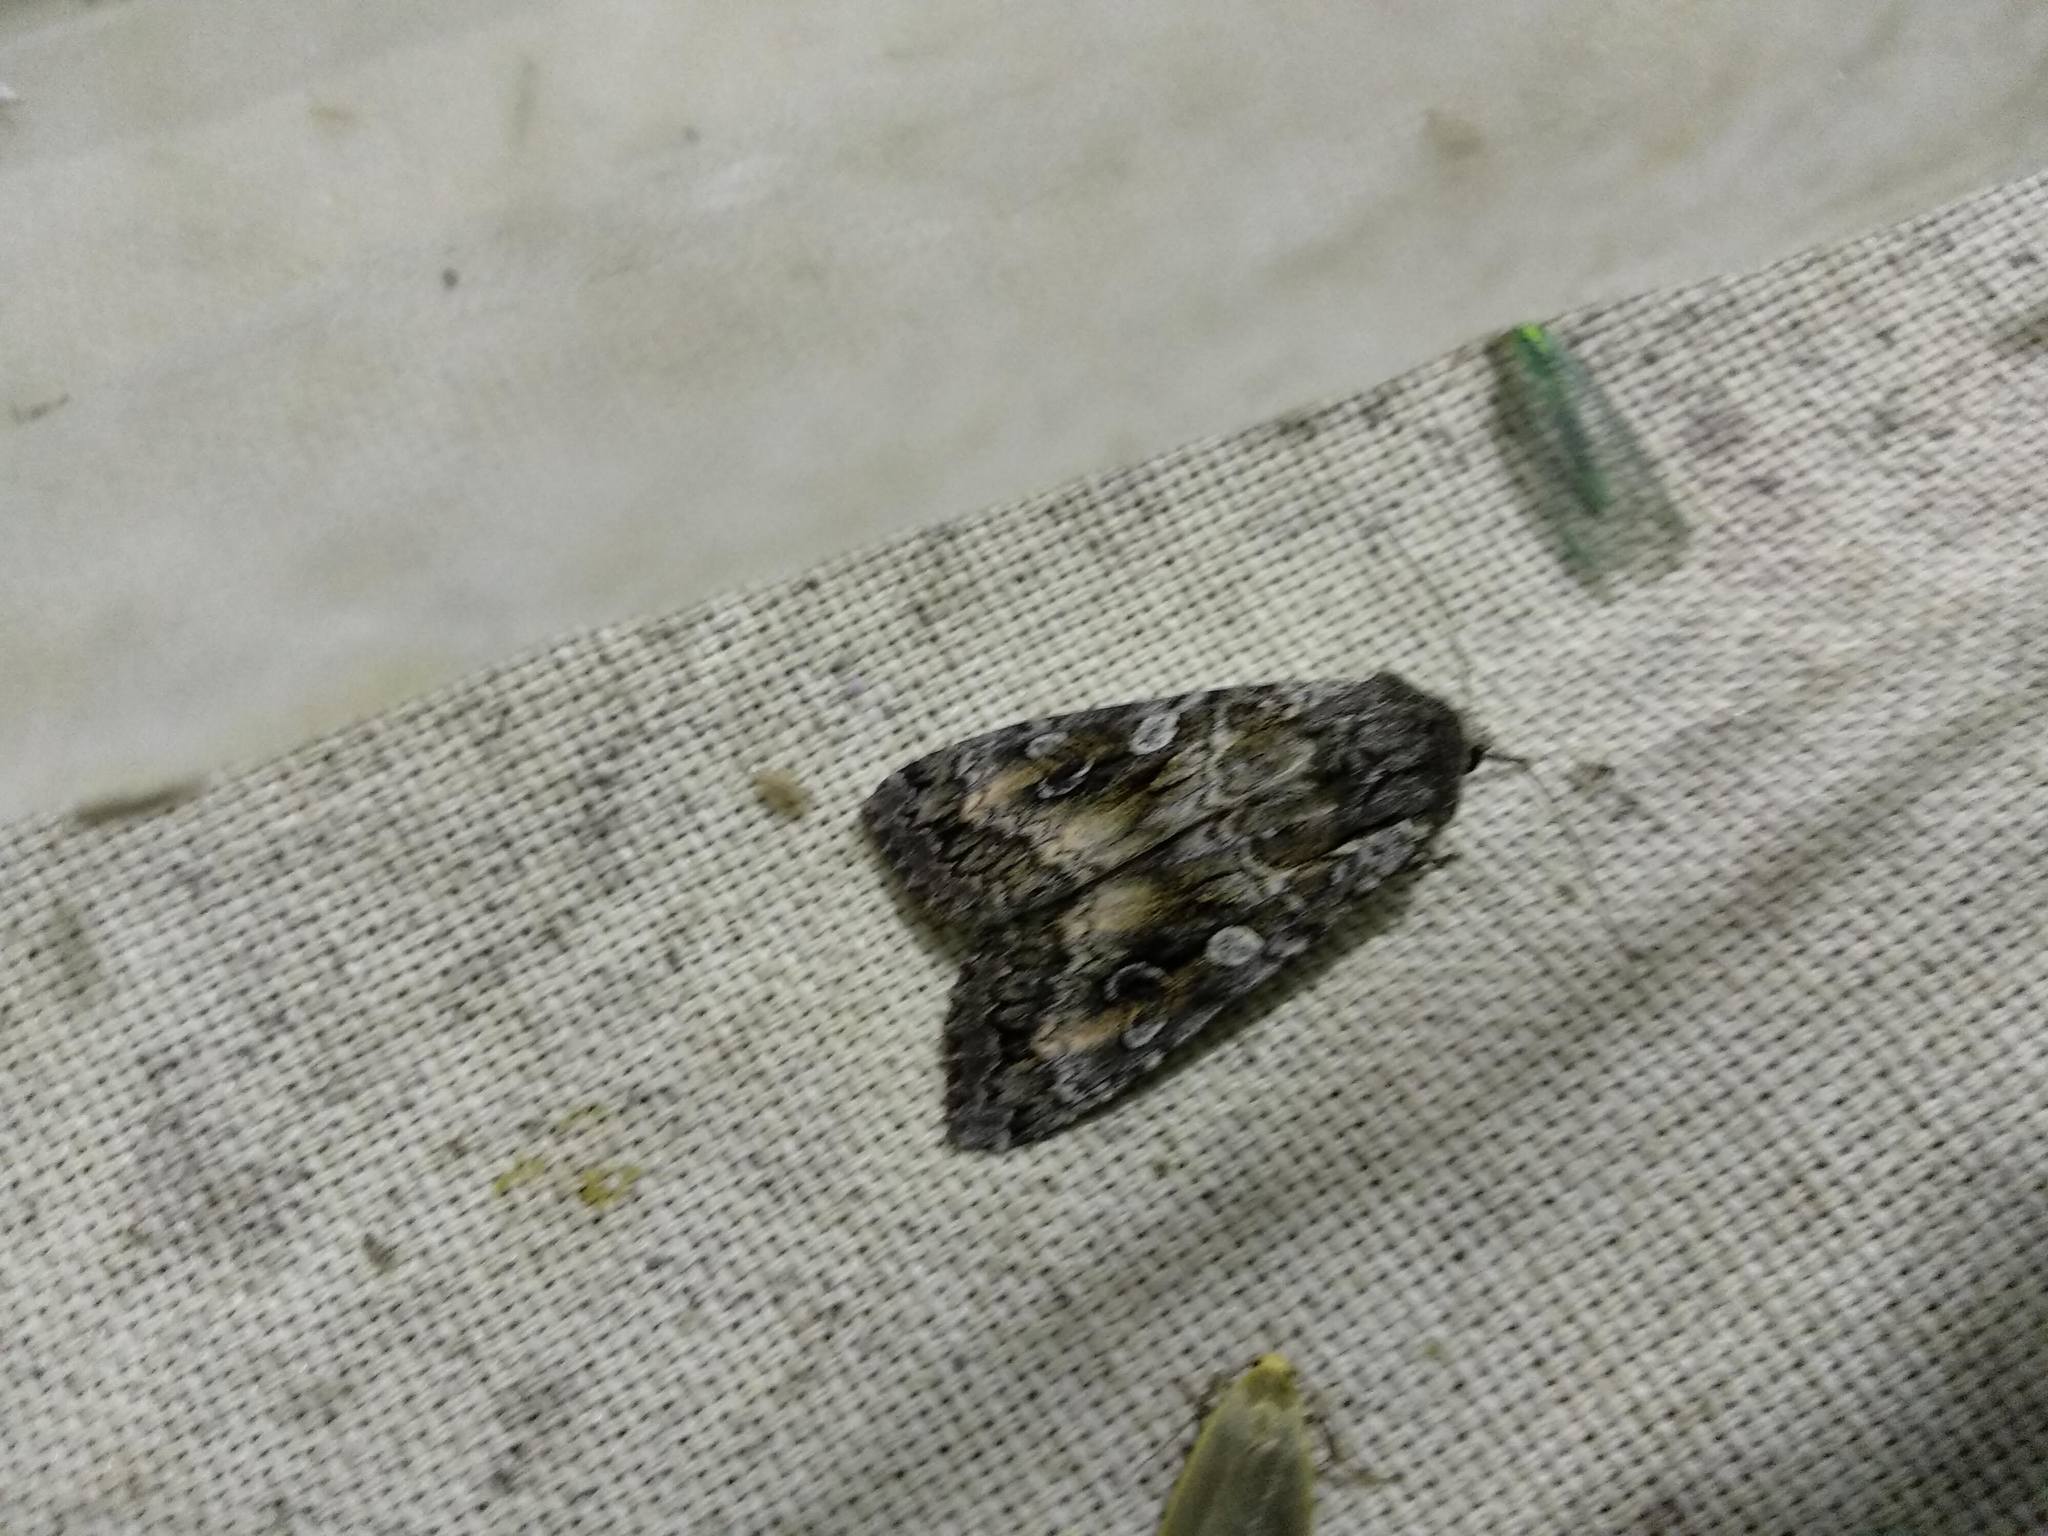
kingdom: Animalia
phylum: Arthropoda
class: Insecta
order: Lepidoptera
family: Noctuidae
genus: Eurois
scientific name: Eurois occulta
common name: Great brocade
